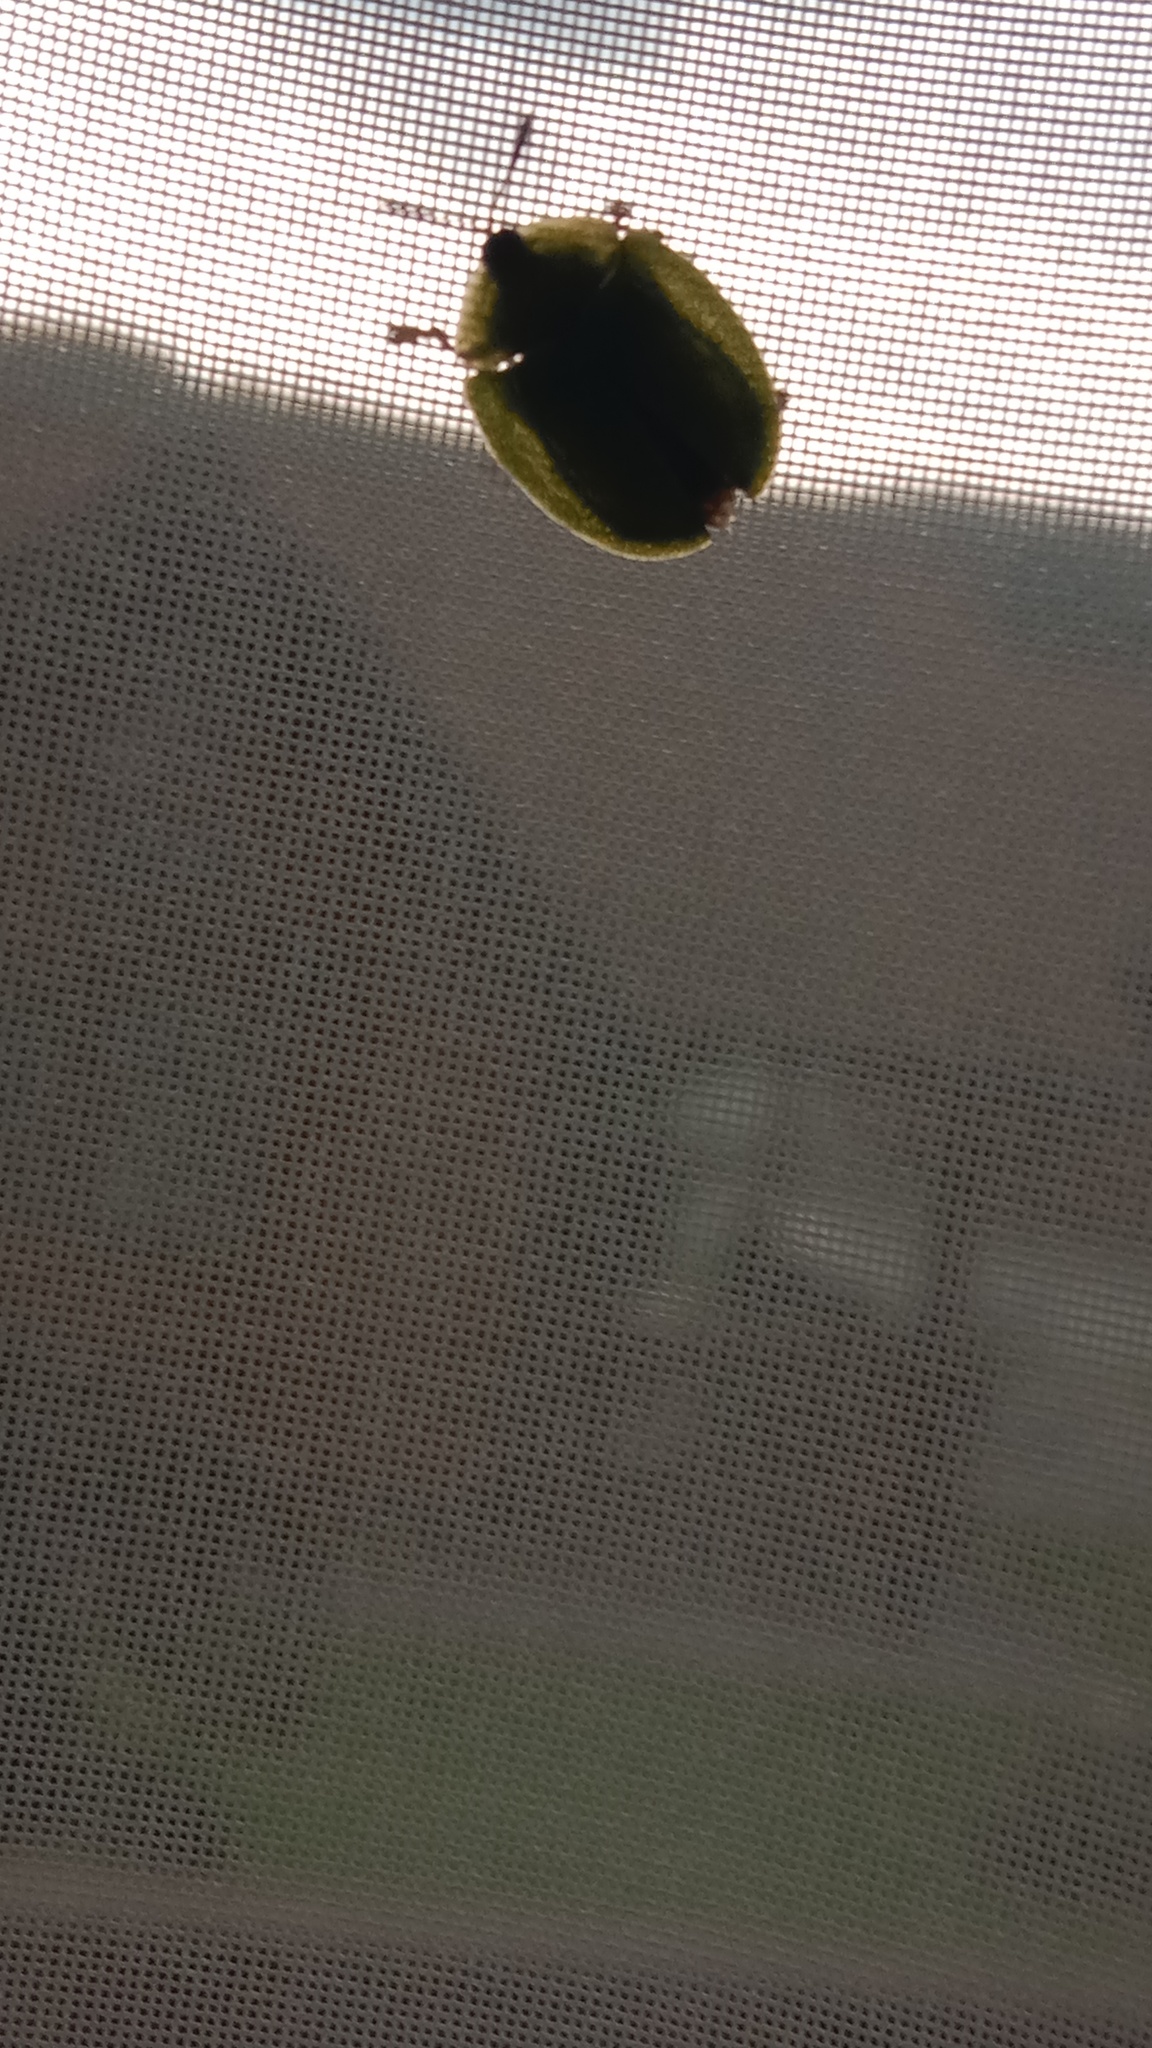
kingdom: Animalia
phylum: Arthropoda
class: Insecta
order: Coleoptera
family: Chrysomelidae
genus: Cassida
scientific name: Cassida viridis
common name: Green tortoise beetle
